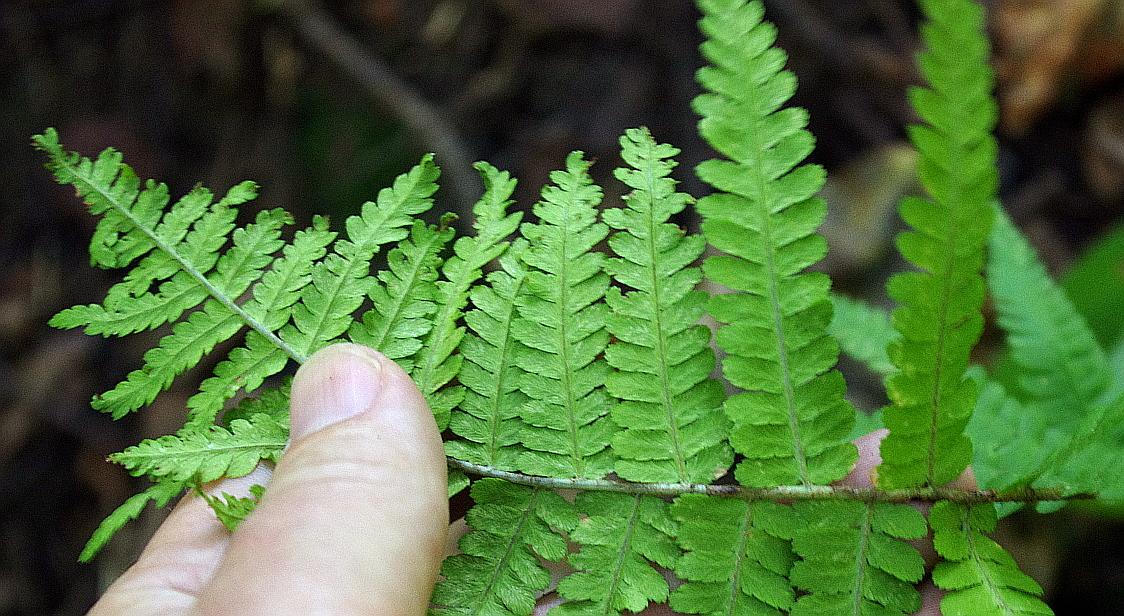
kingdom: Plantae
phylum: Tracheophyta
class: Polypodiopsida
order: Polypodiales
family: Dryopteridaceae
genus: Dryopteris
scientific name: Dryopteris filix-mas
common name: Male fern
